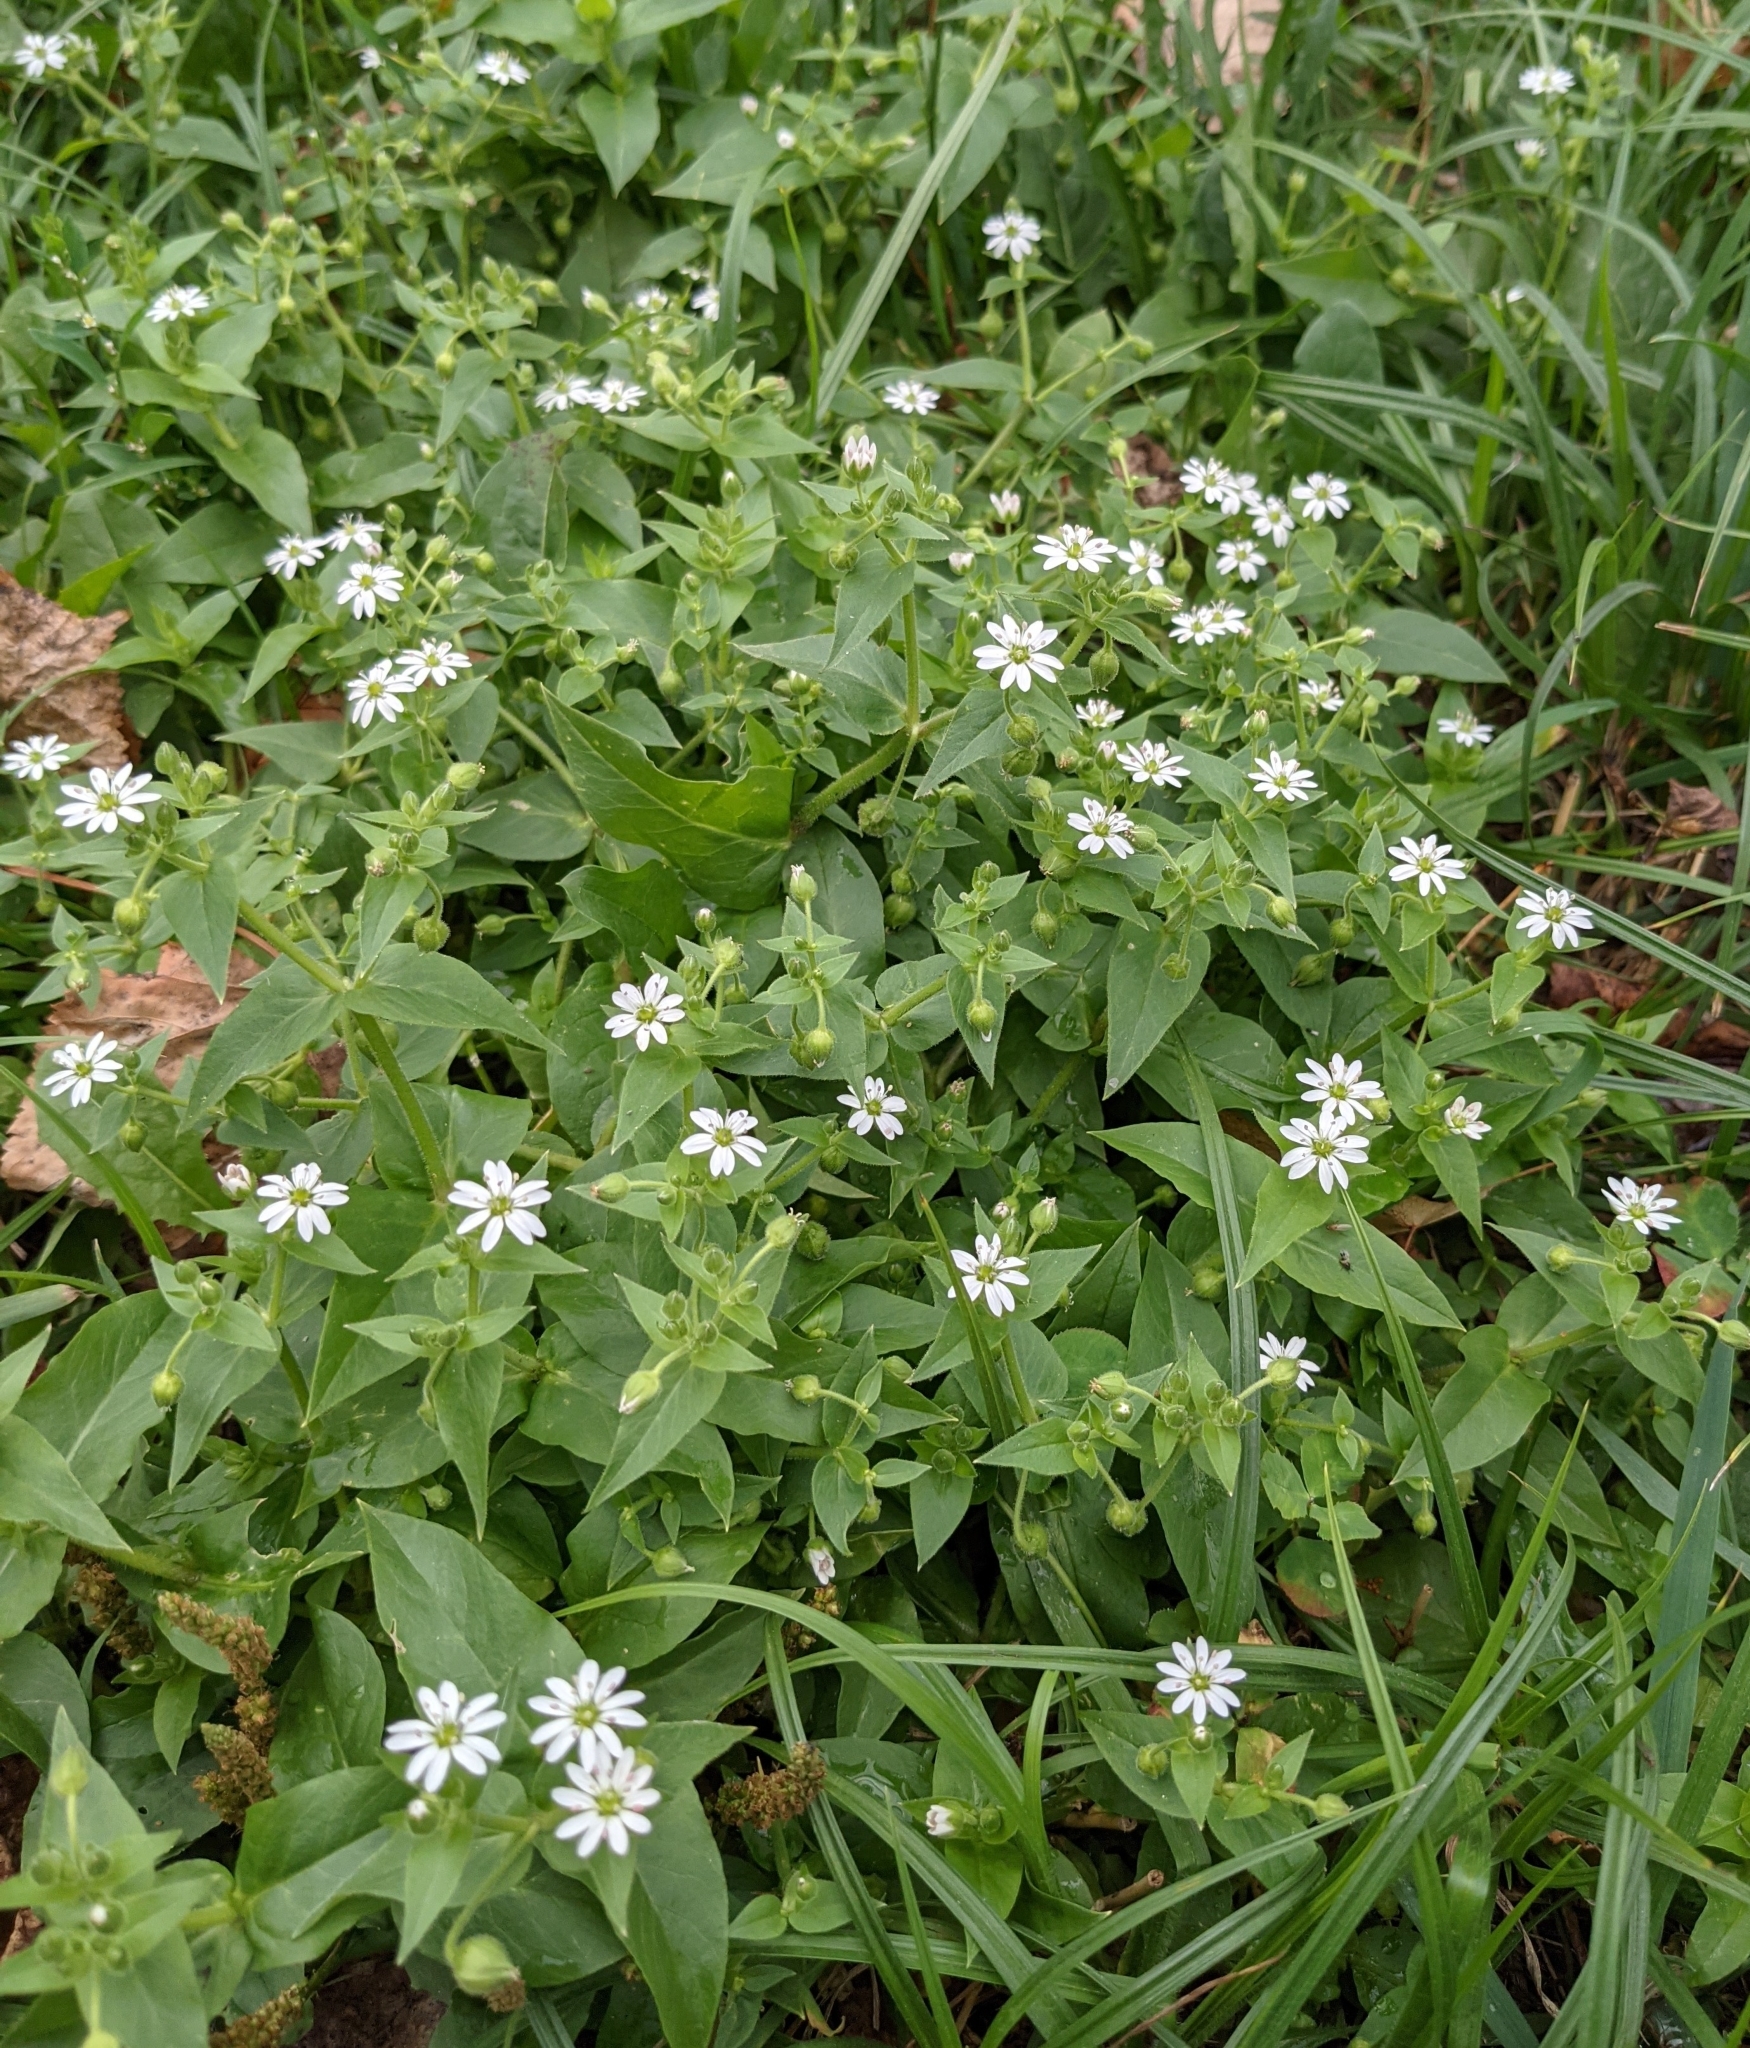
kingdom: Plantae
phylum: Tracheophyta
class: Magnoliopsida
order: Caryophyllales
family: Caryophyllaceae
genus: Stellaria
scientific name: Stellaria aquatica
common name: Water chickweed
